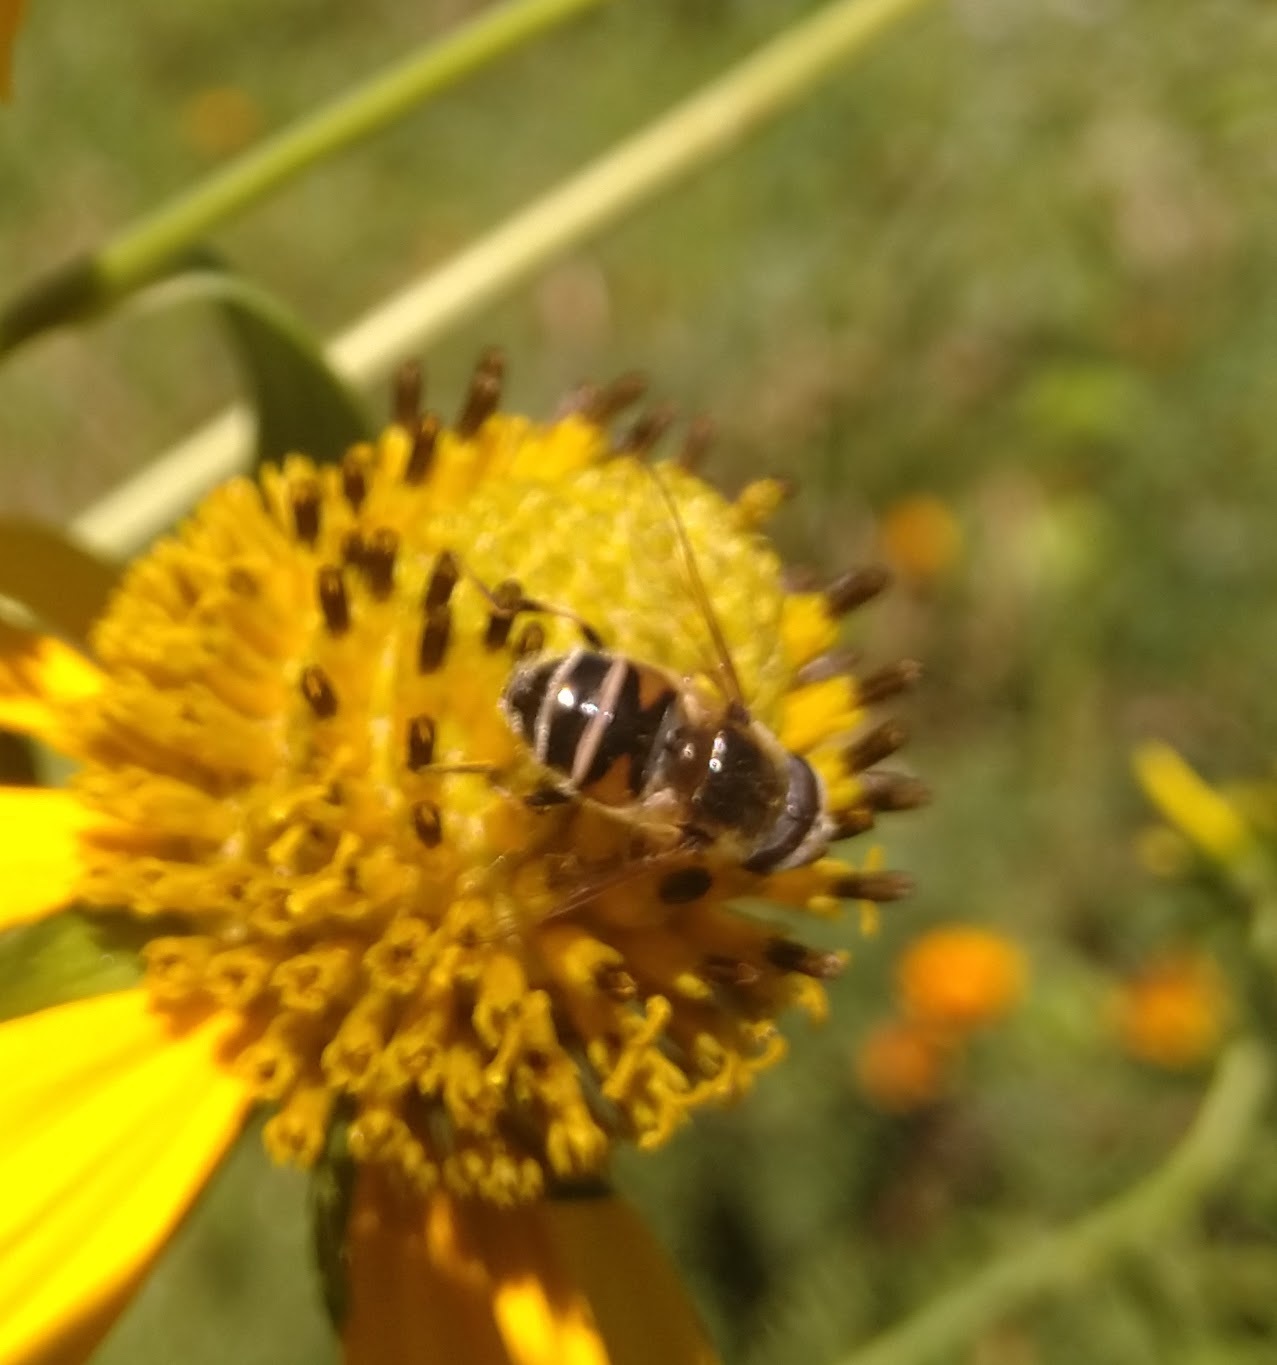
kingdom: Animalia
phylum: Arthropoda
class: Insecta
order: Diptera
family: Syrphidae
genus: Eristalis
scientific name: Eristalis stipator
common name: Yellow-shouldered drone fly
